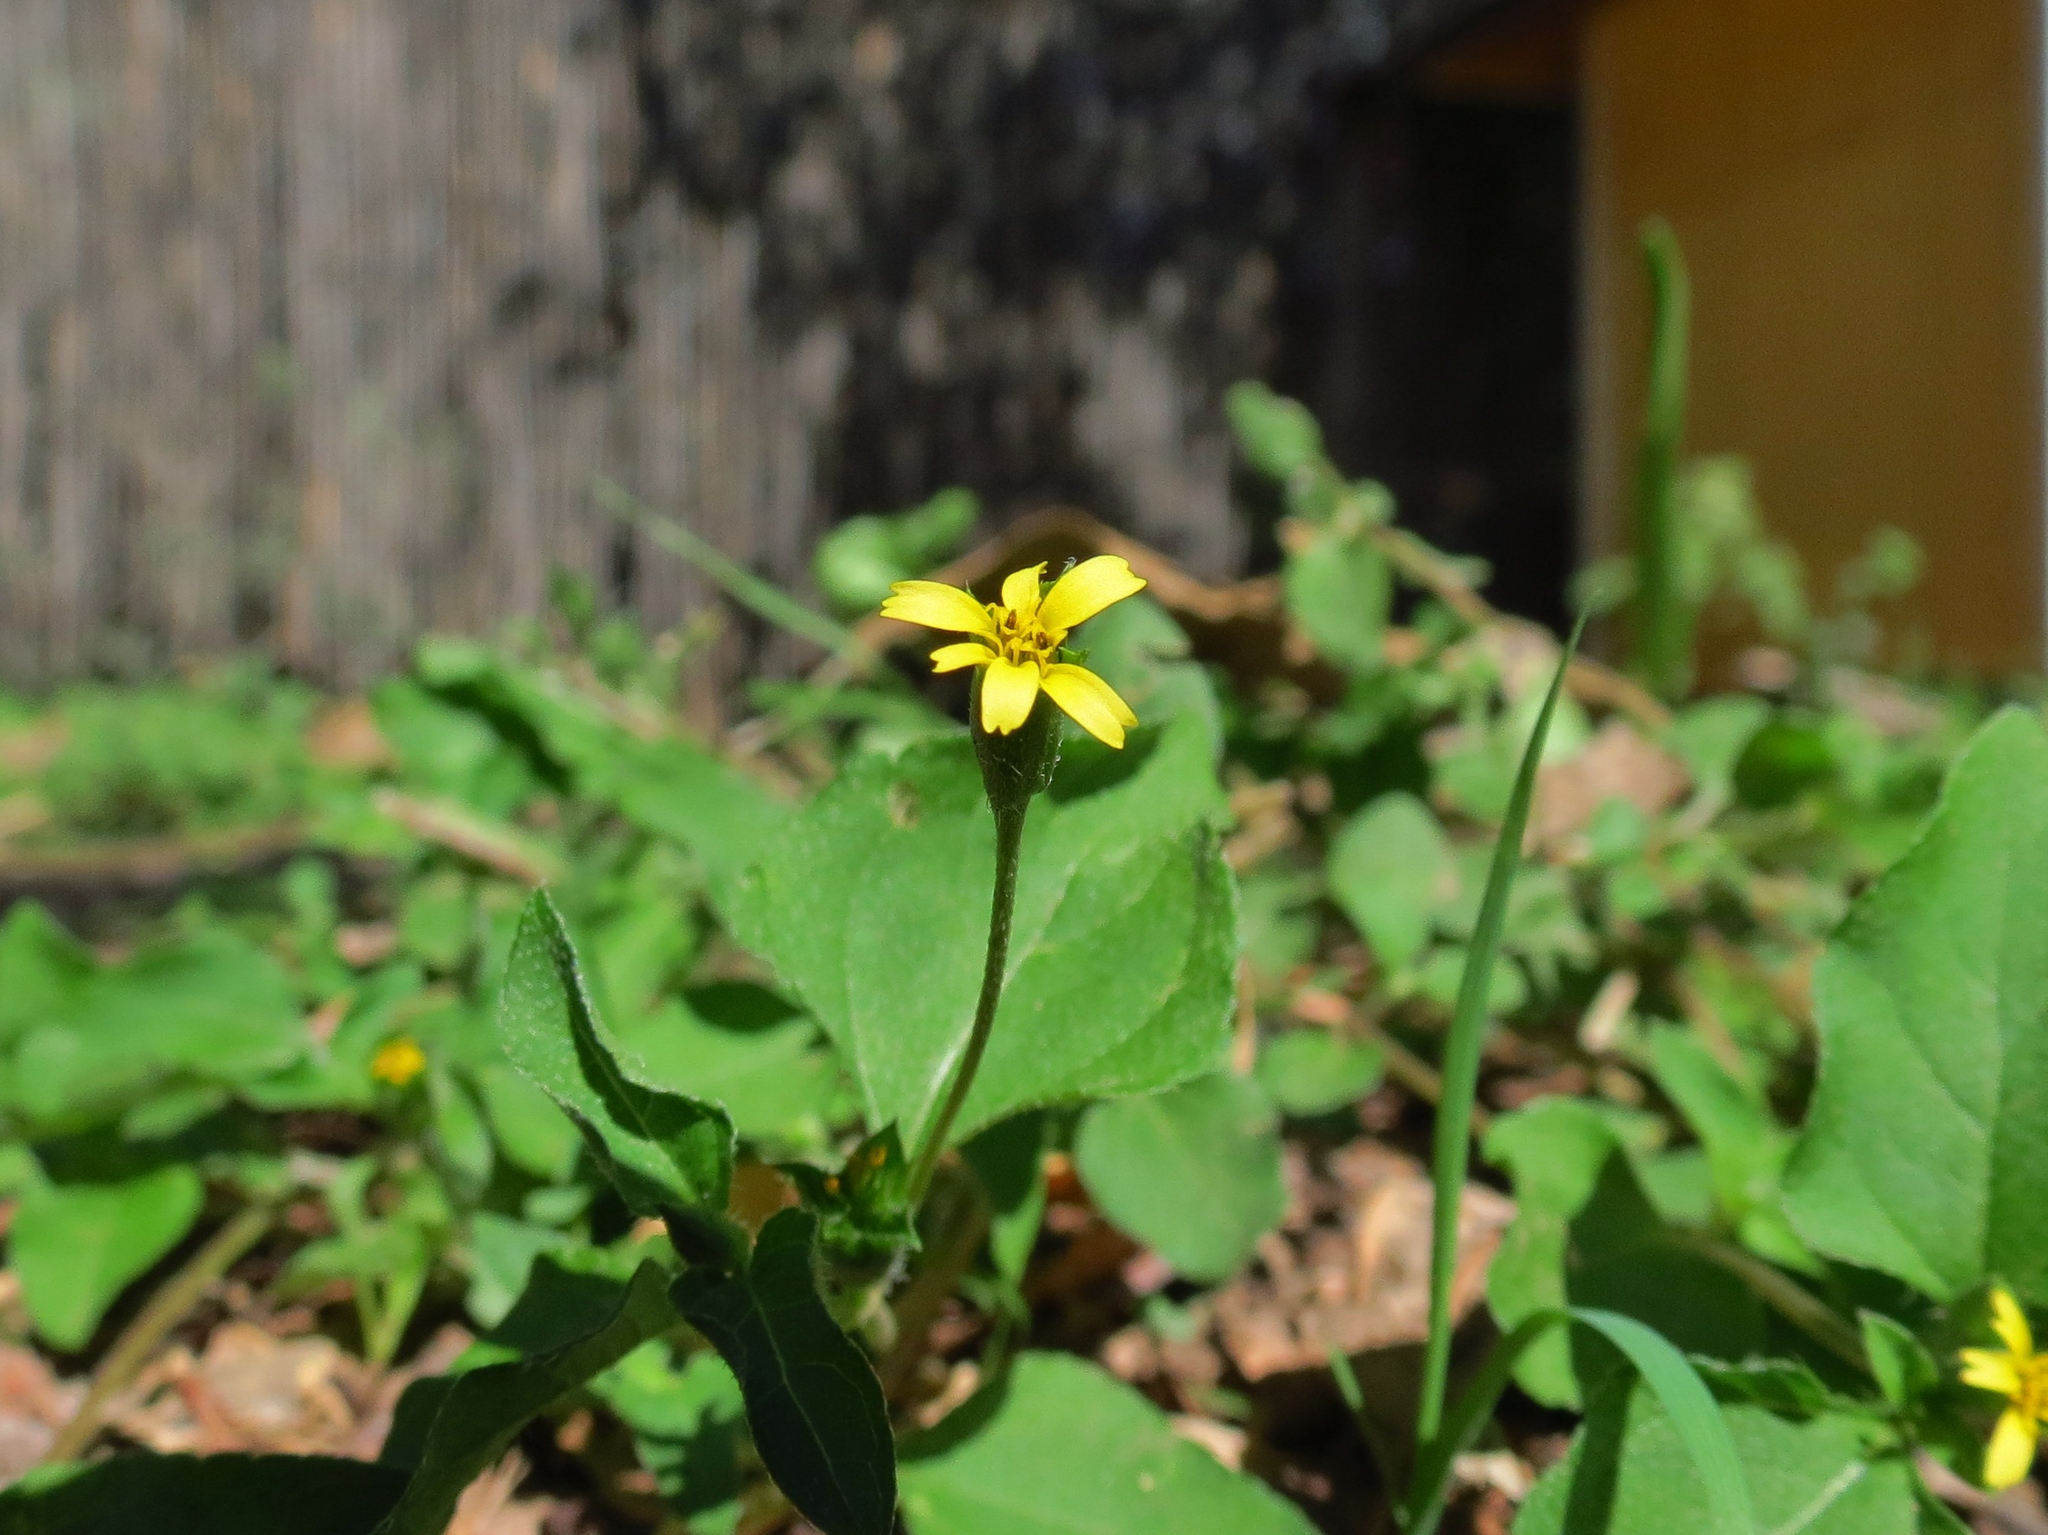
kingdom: Plantae
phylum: Tracheophyta
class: Magnoliopsida
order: Asterales
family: Asteraceae
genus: Calyptocarpus
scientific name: Calyptocarpus vialis
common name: Straggler daisy
